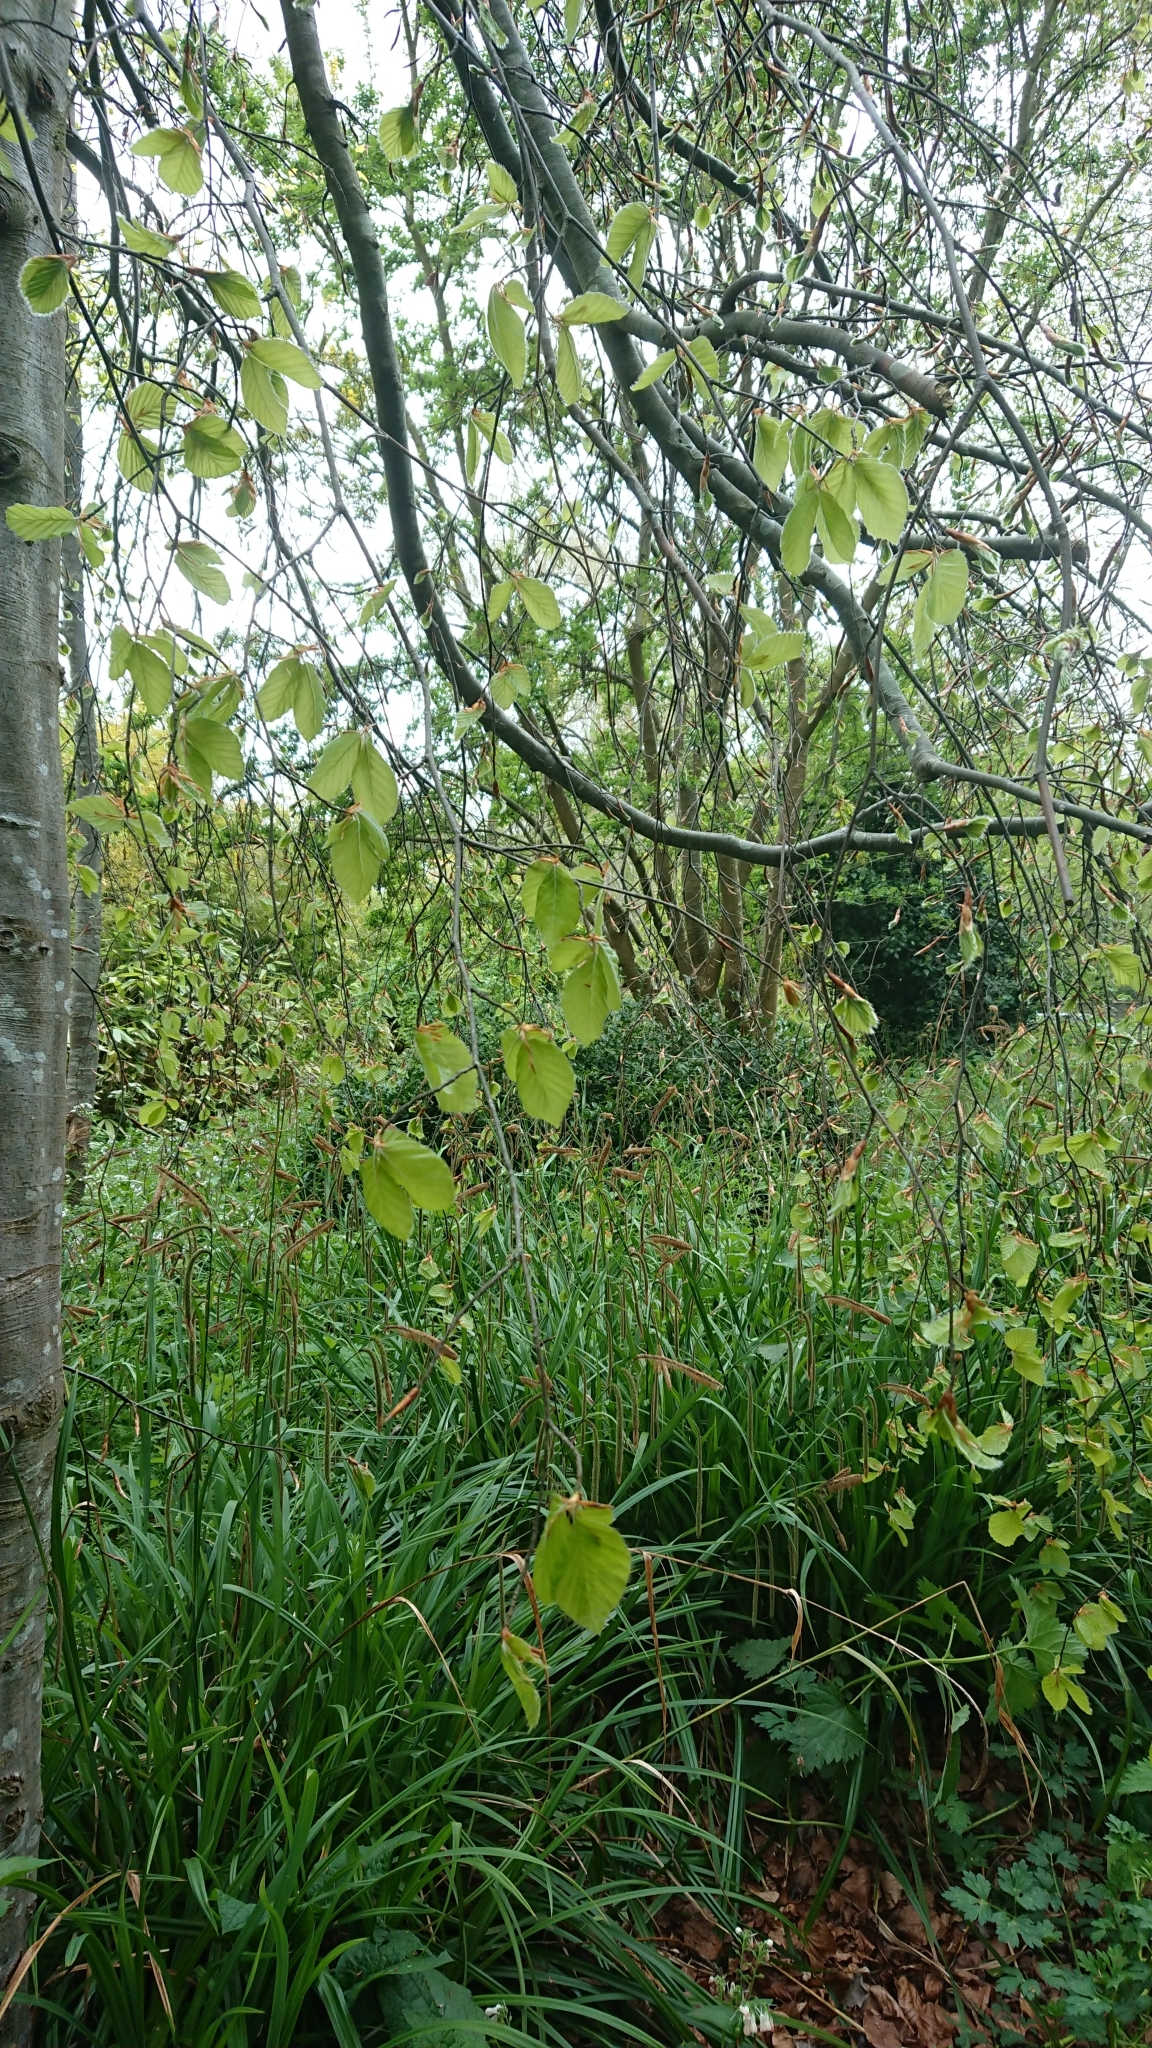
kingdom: Plantae
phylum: Tracheophyta
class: Magnoliopsida
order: Fagales
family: Fagaceae
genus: Fagus
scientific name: Fagus sylvatica
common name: Beech
